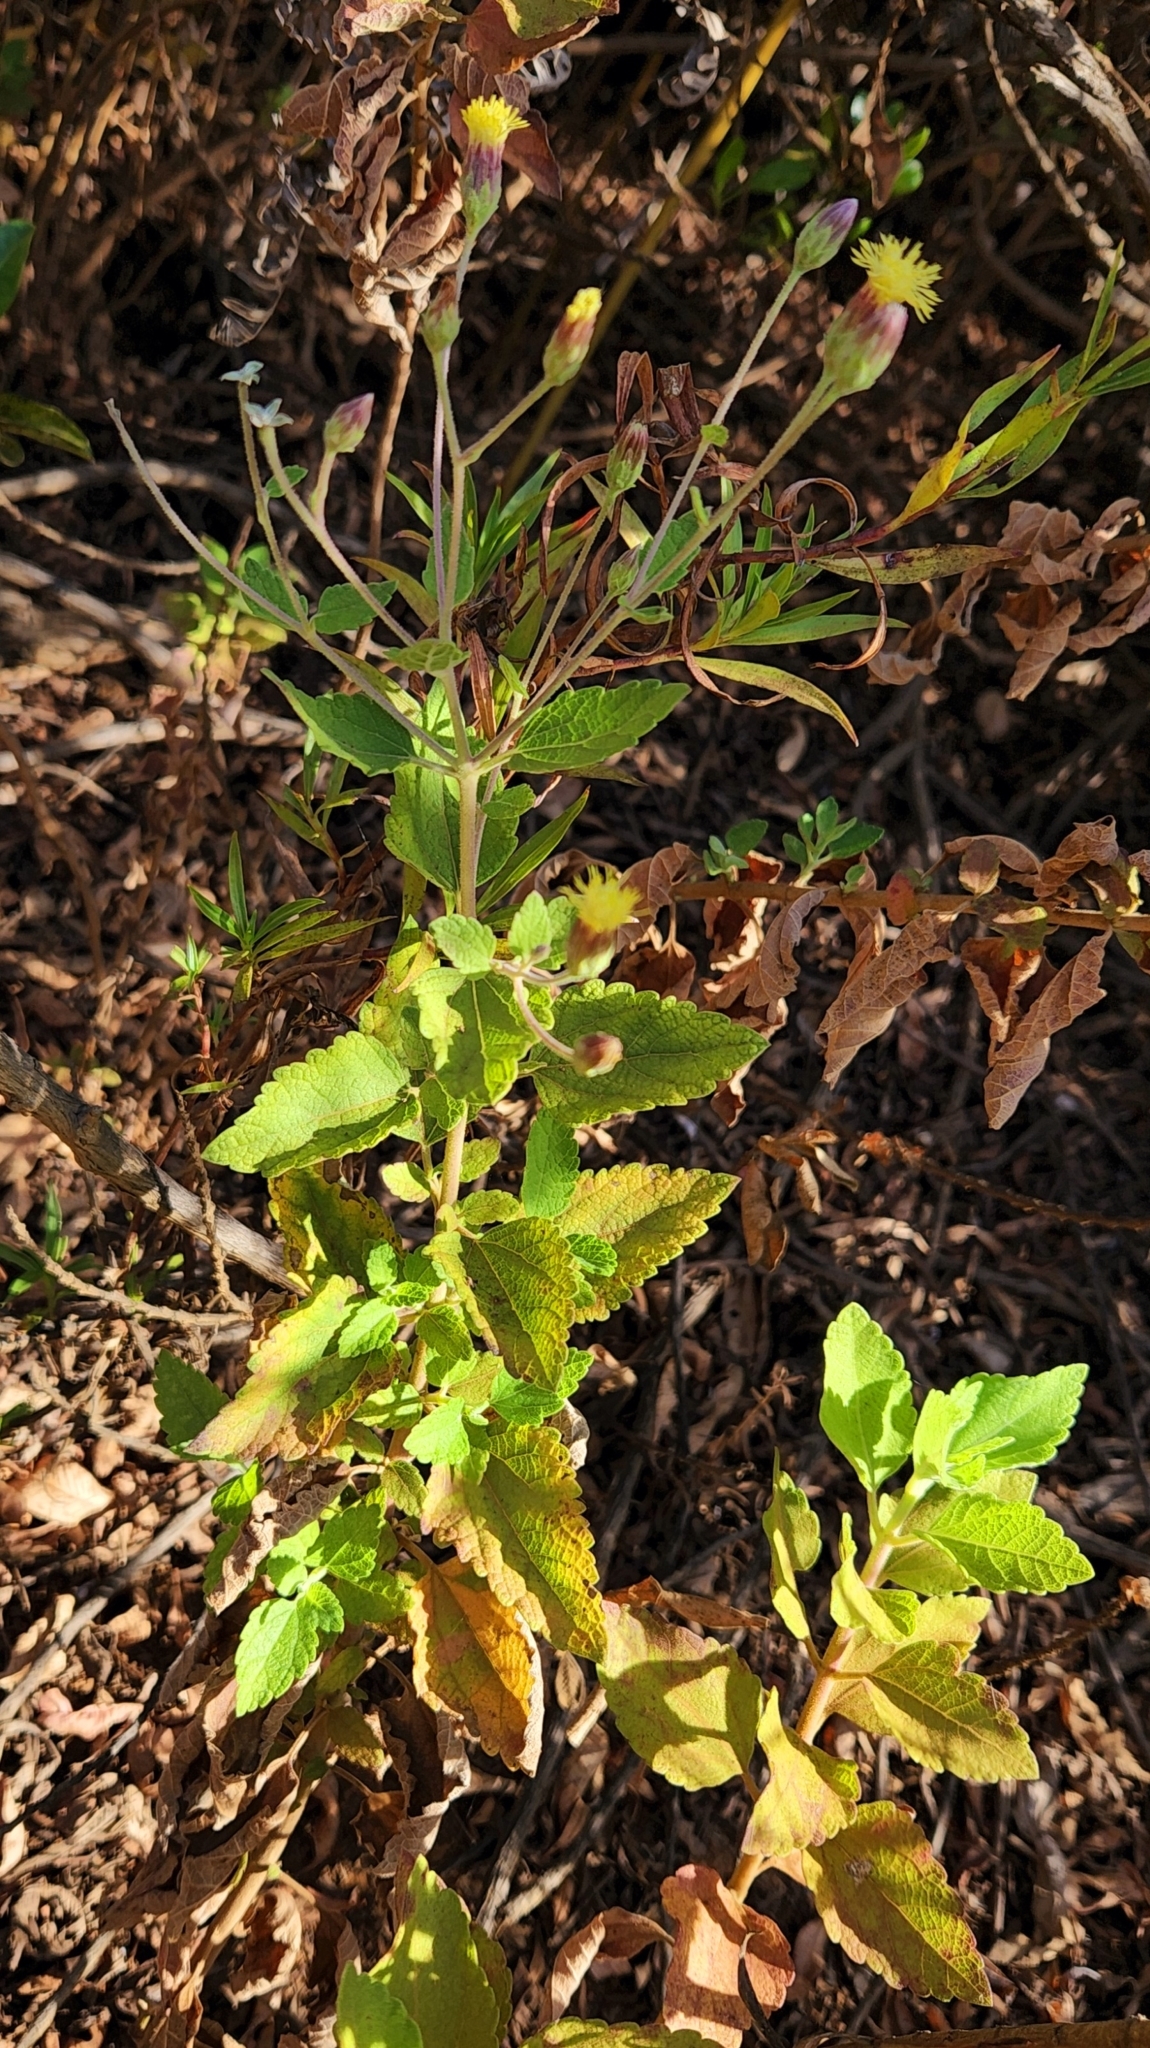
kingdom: Plantae
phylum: Tracheophyta
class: Magnoliopsida
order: Asterales
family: Asteraceae
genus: Brickellia
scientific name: Brickellia peninsularis
